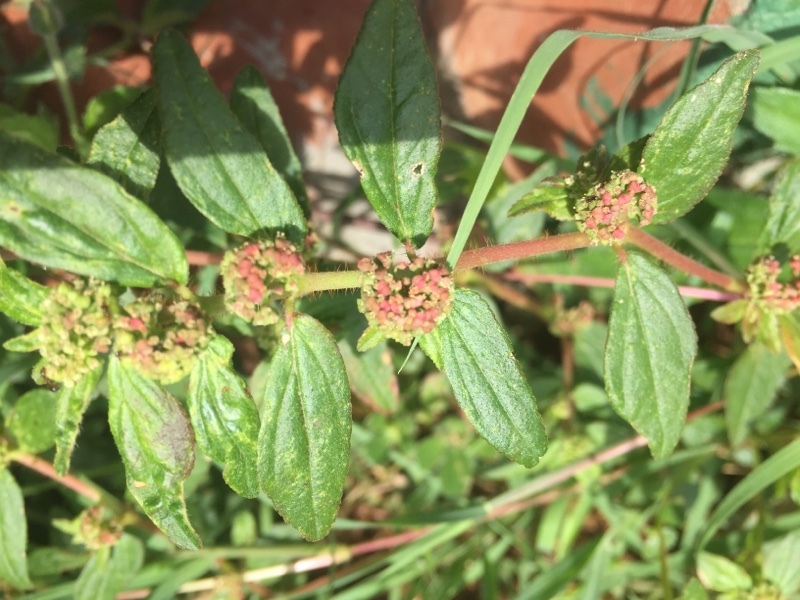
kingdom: Plantae
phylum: Tracheophyta
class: Magnoliopsida
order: Malpighiales
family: Euphorbiaceae
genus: Euphorbia
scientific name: Euphorbia hirta
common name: Pillpod sandmat
